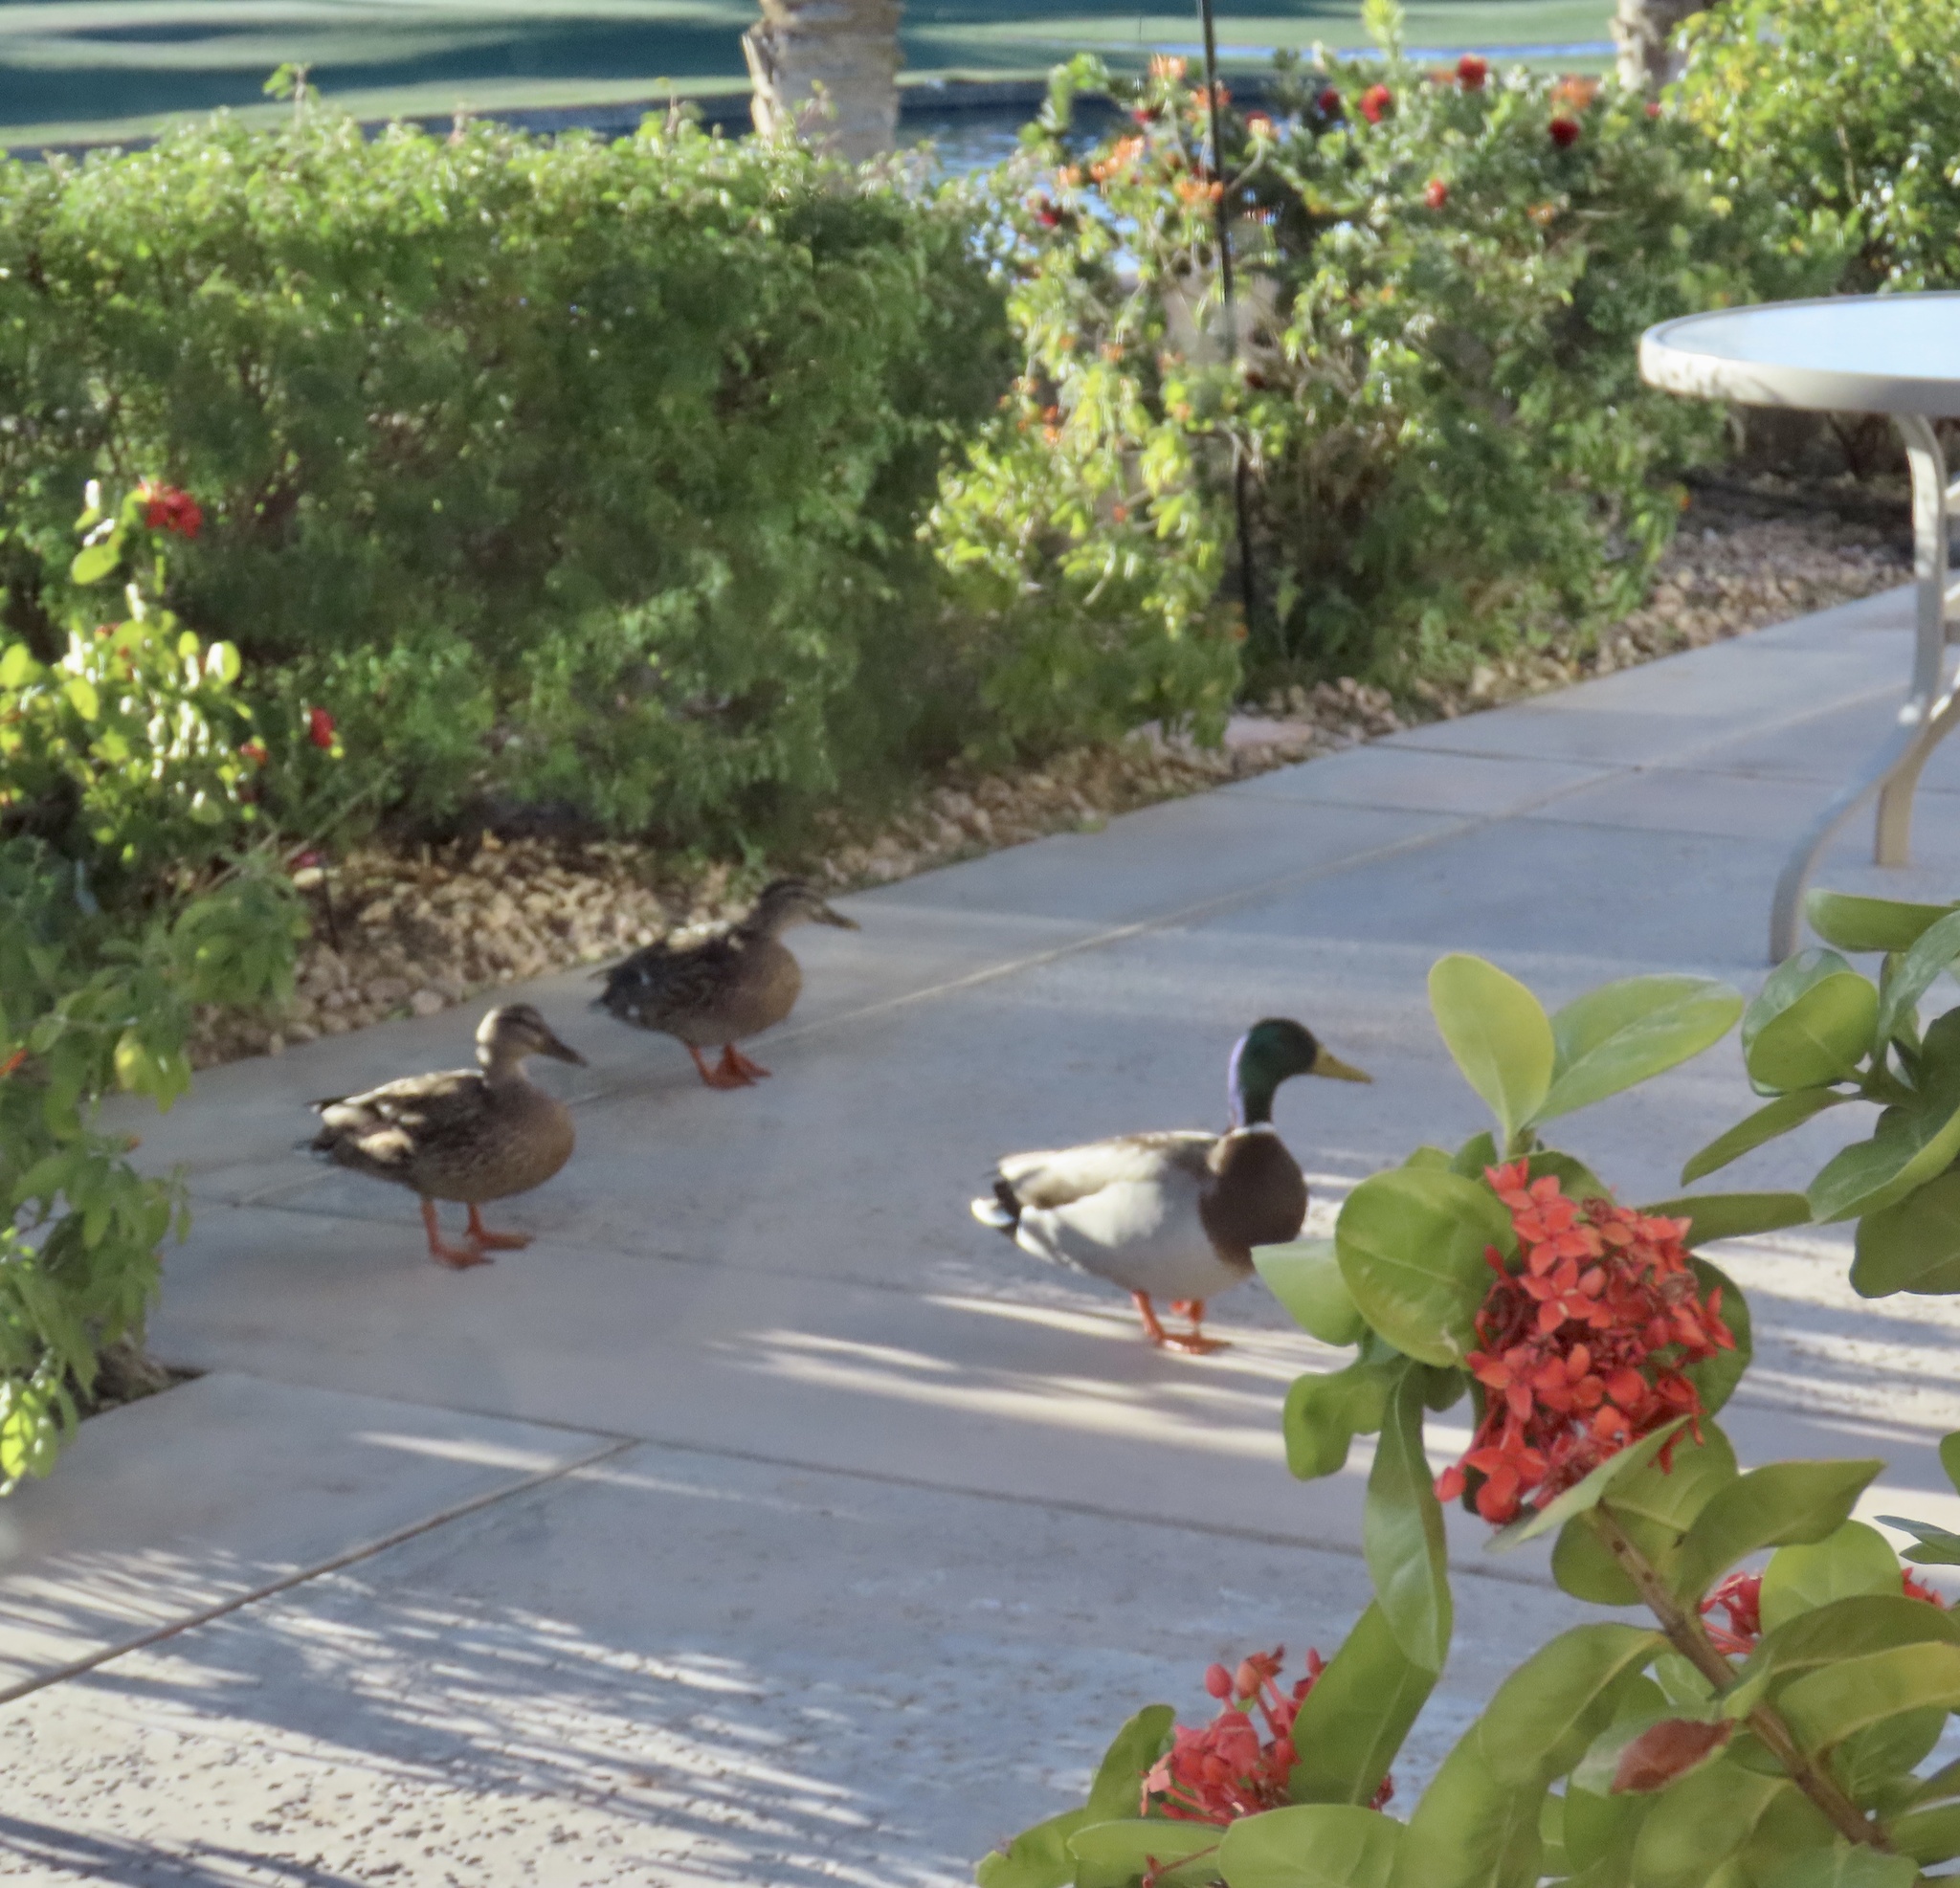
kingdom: Animalia
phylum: Chordata
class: Aves
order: Anseriformes
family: Anatidae
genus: Anas
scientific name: Anas platyrhynchos
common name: Mallard
